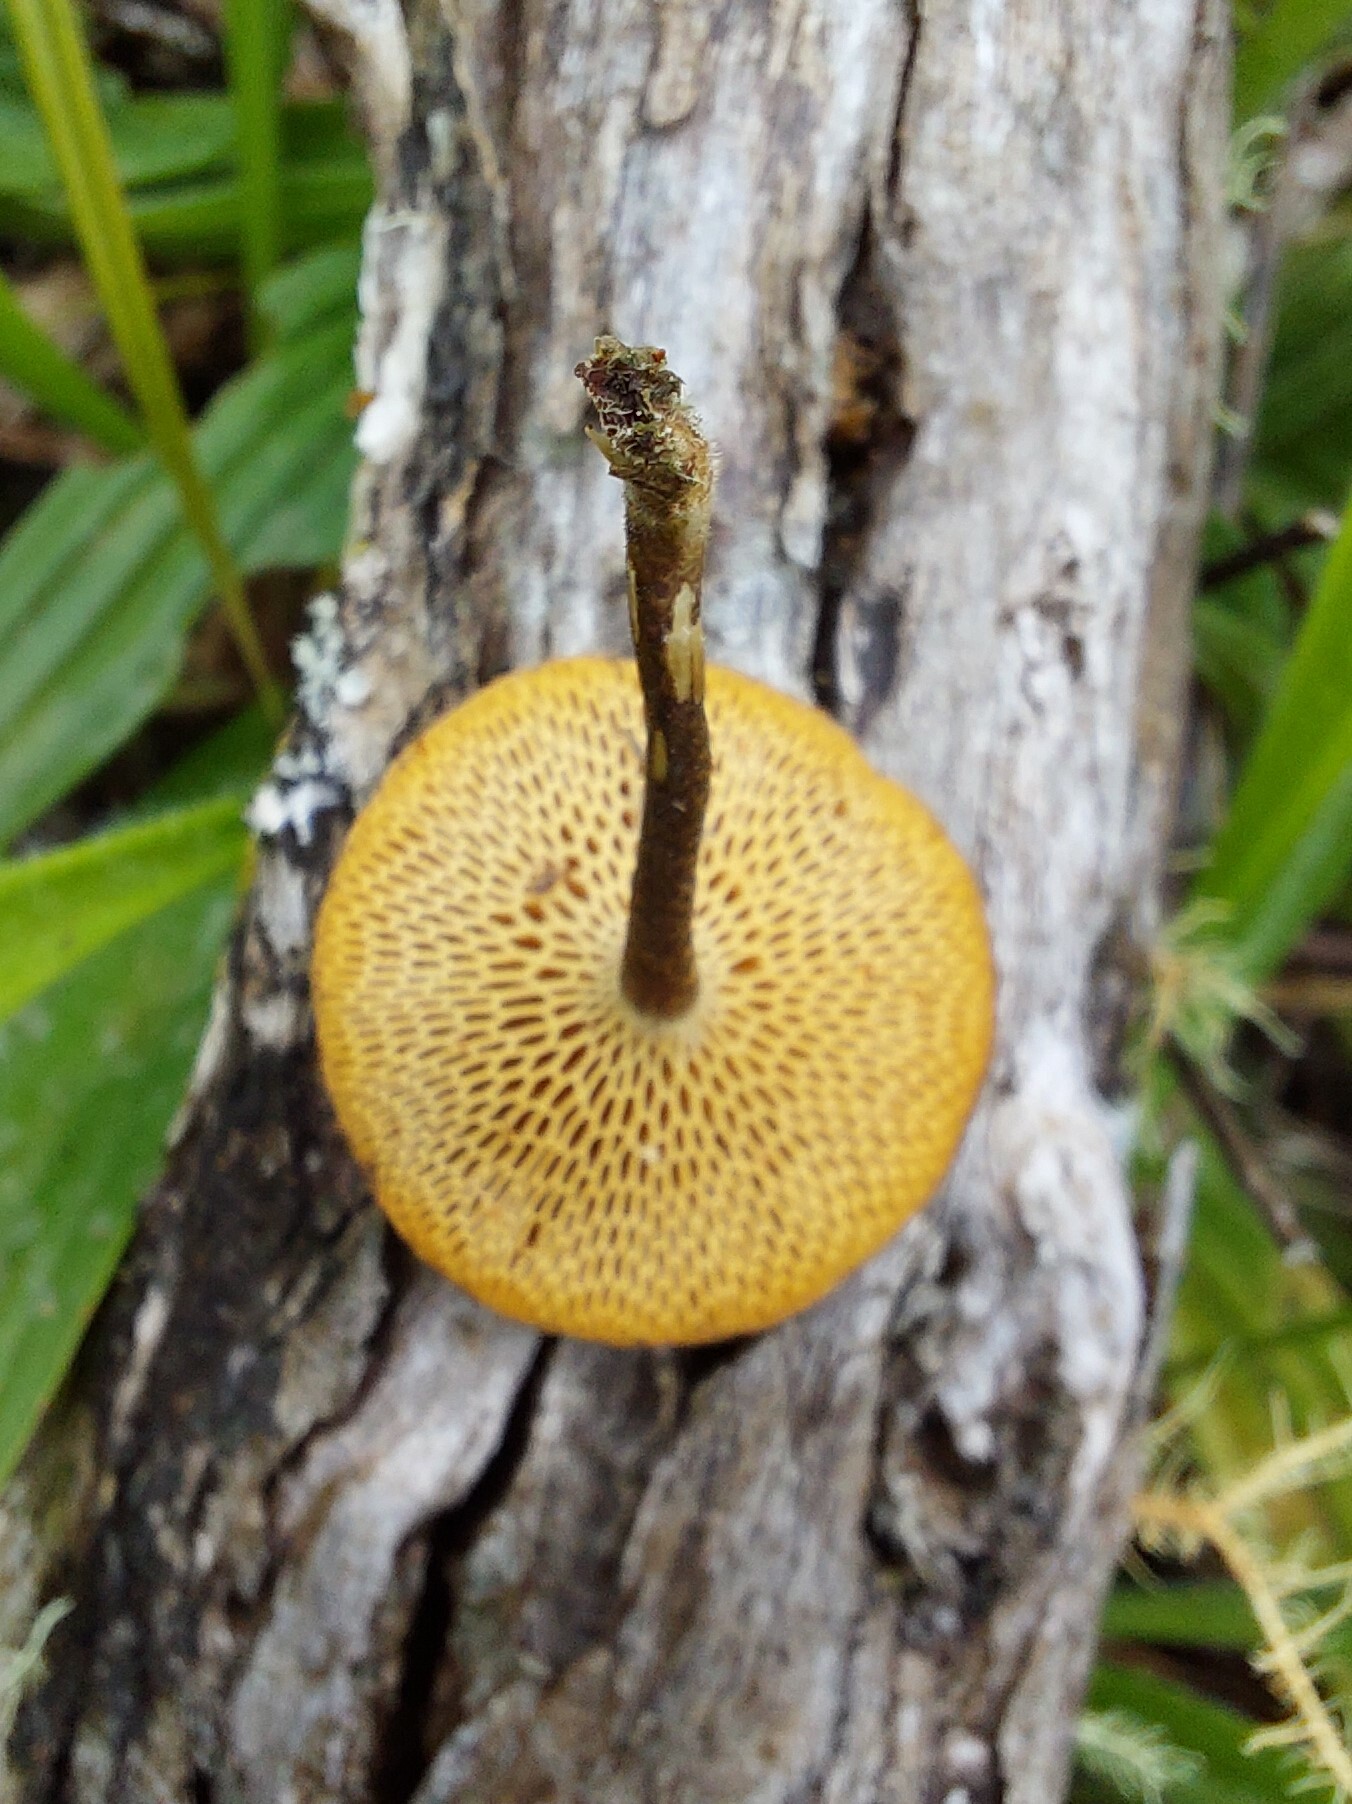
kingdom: Fungi
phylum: Basidiomycota
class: Agaricomycetes
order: Polyporales
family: Polyporaceae
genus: Lentinus
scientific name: Lentinus arcularius
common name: Spring polypore
